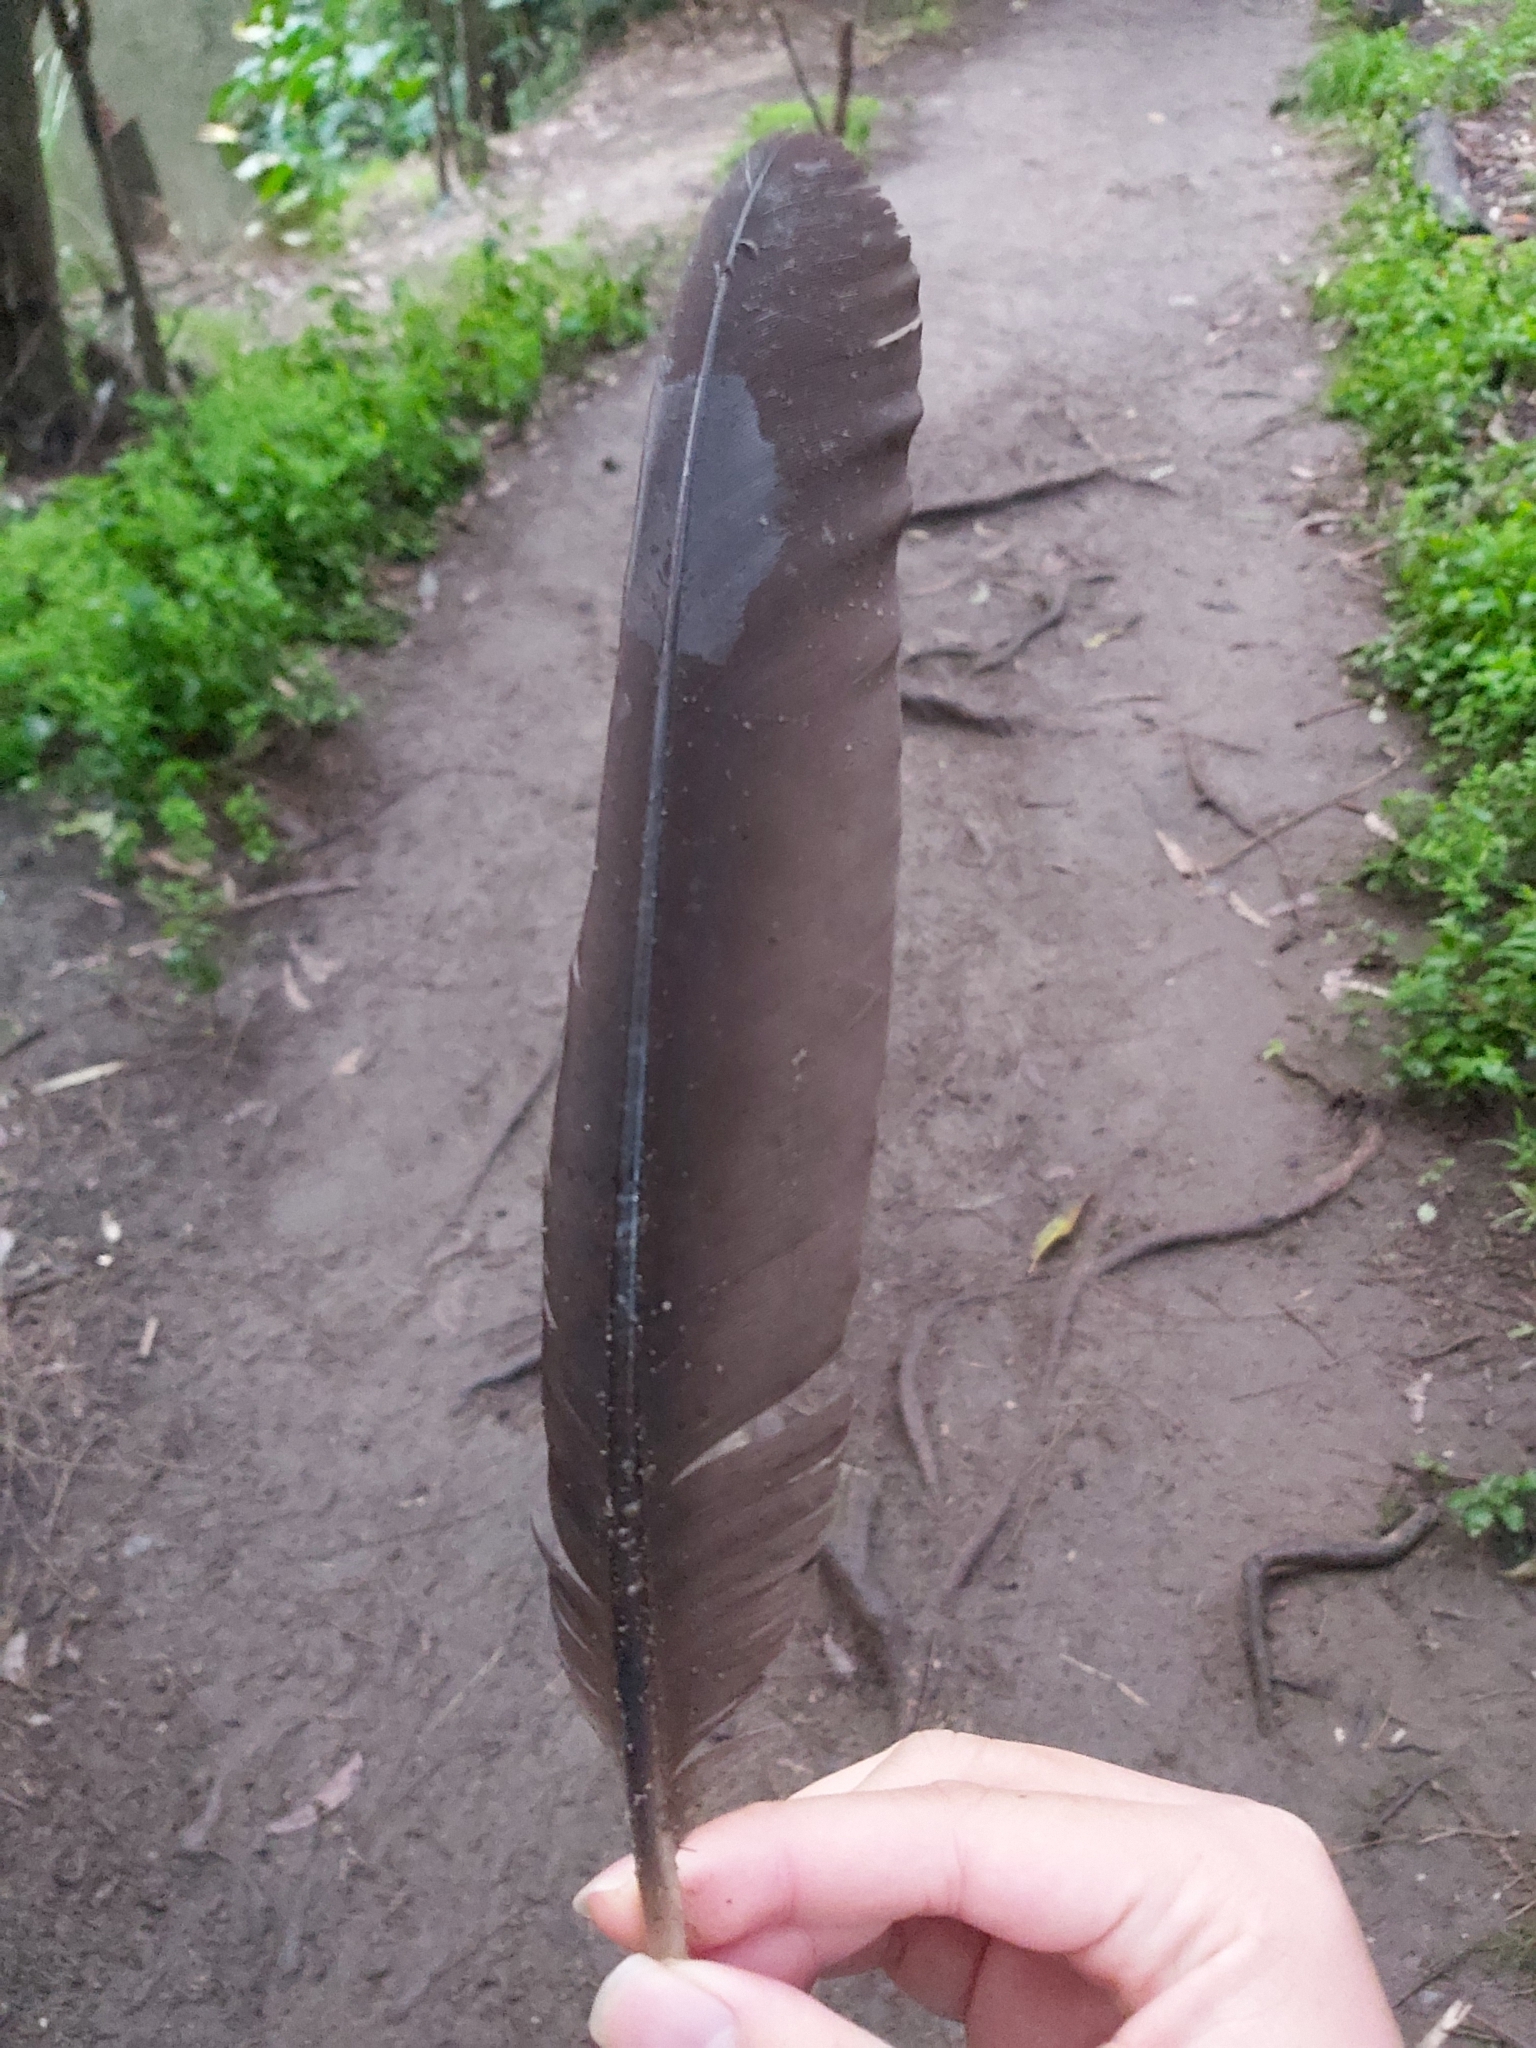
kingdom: Animalia
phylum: Chordata
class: Aves
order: Galliformes
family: Megapodiidae
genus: Alectura
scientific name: Alectura lathami
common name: Australian brushturkey
